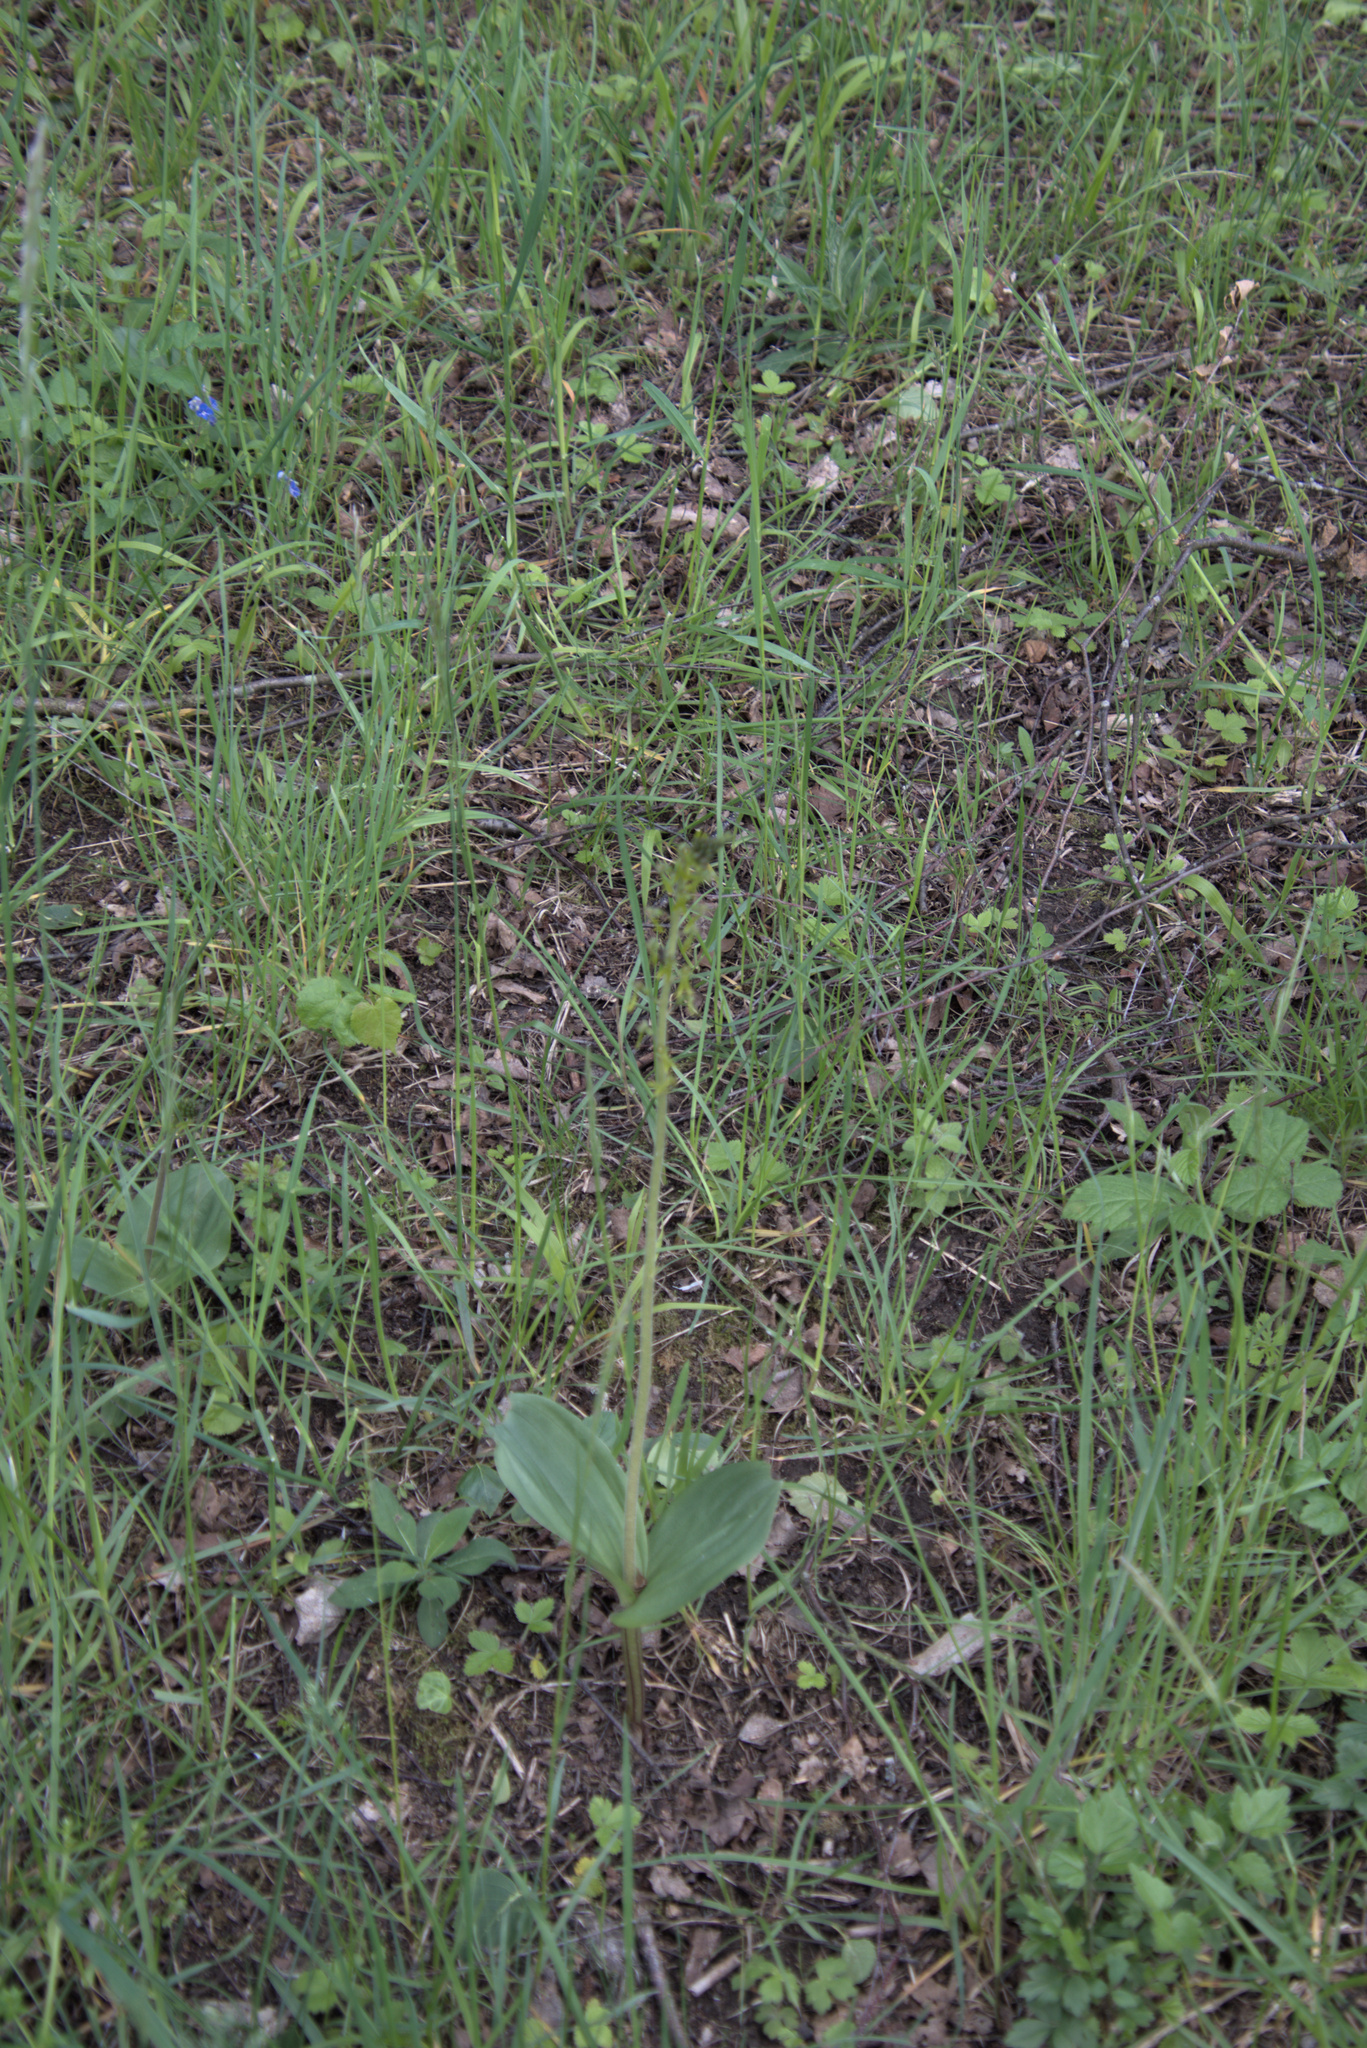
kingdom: Plantae
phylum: Tracheophyta
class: Liliopsida
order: Asparagales
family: Orchidaceae
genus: Neottia
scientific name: Neottia ovata
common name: Common twayblade
